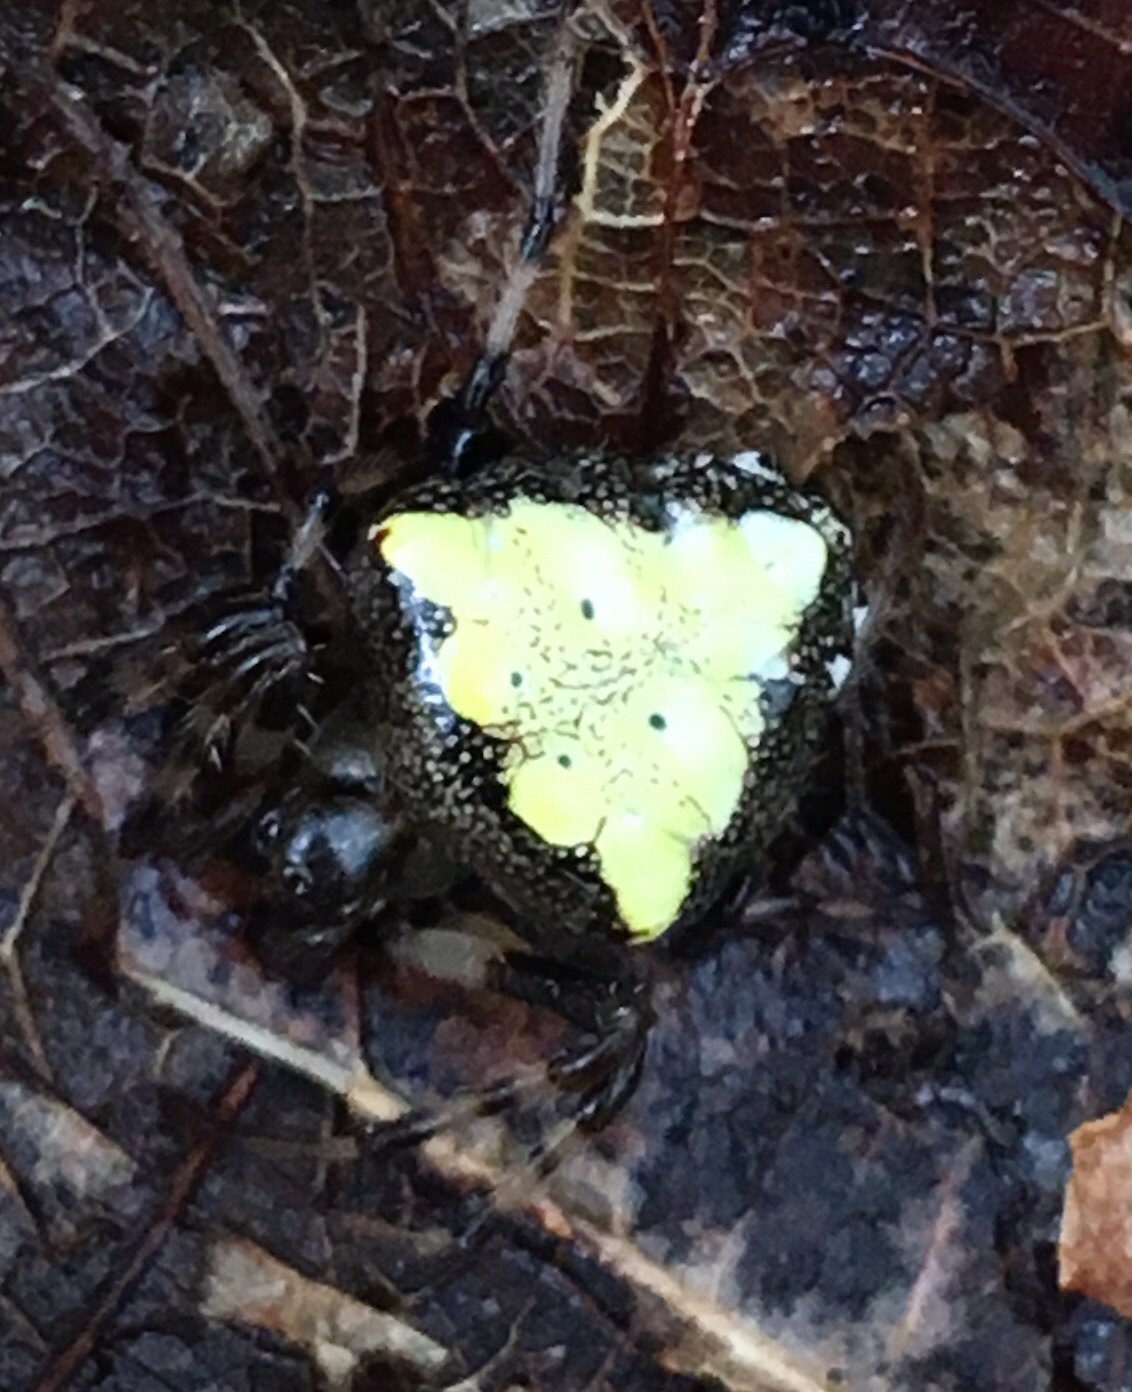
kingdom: Animalia
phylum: Arthropoda
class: Arachnida
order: Araneae
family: Araneidae
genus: Verrucosa
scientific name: Verrucosa arenata
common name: Orb weavers
